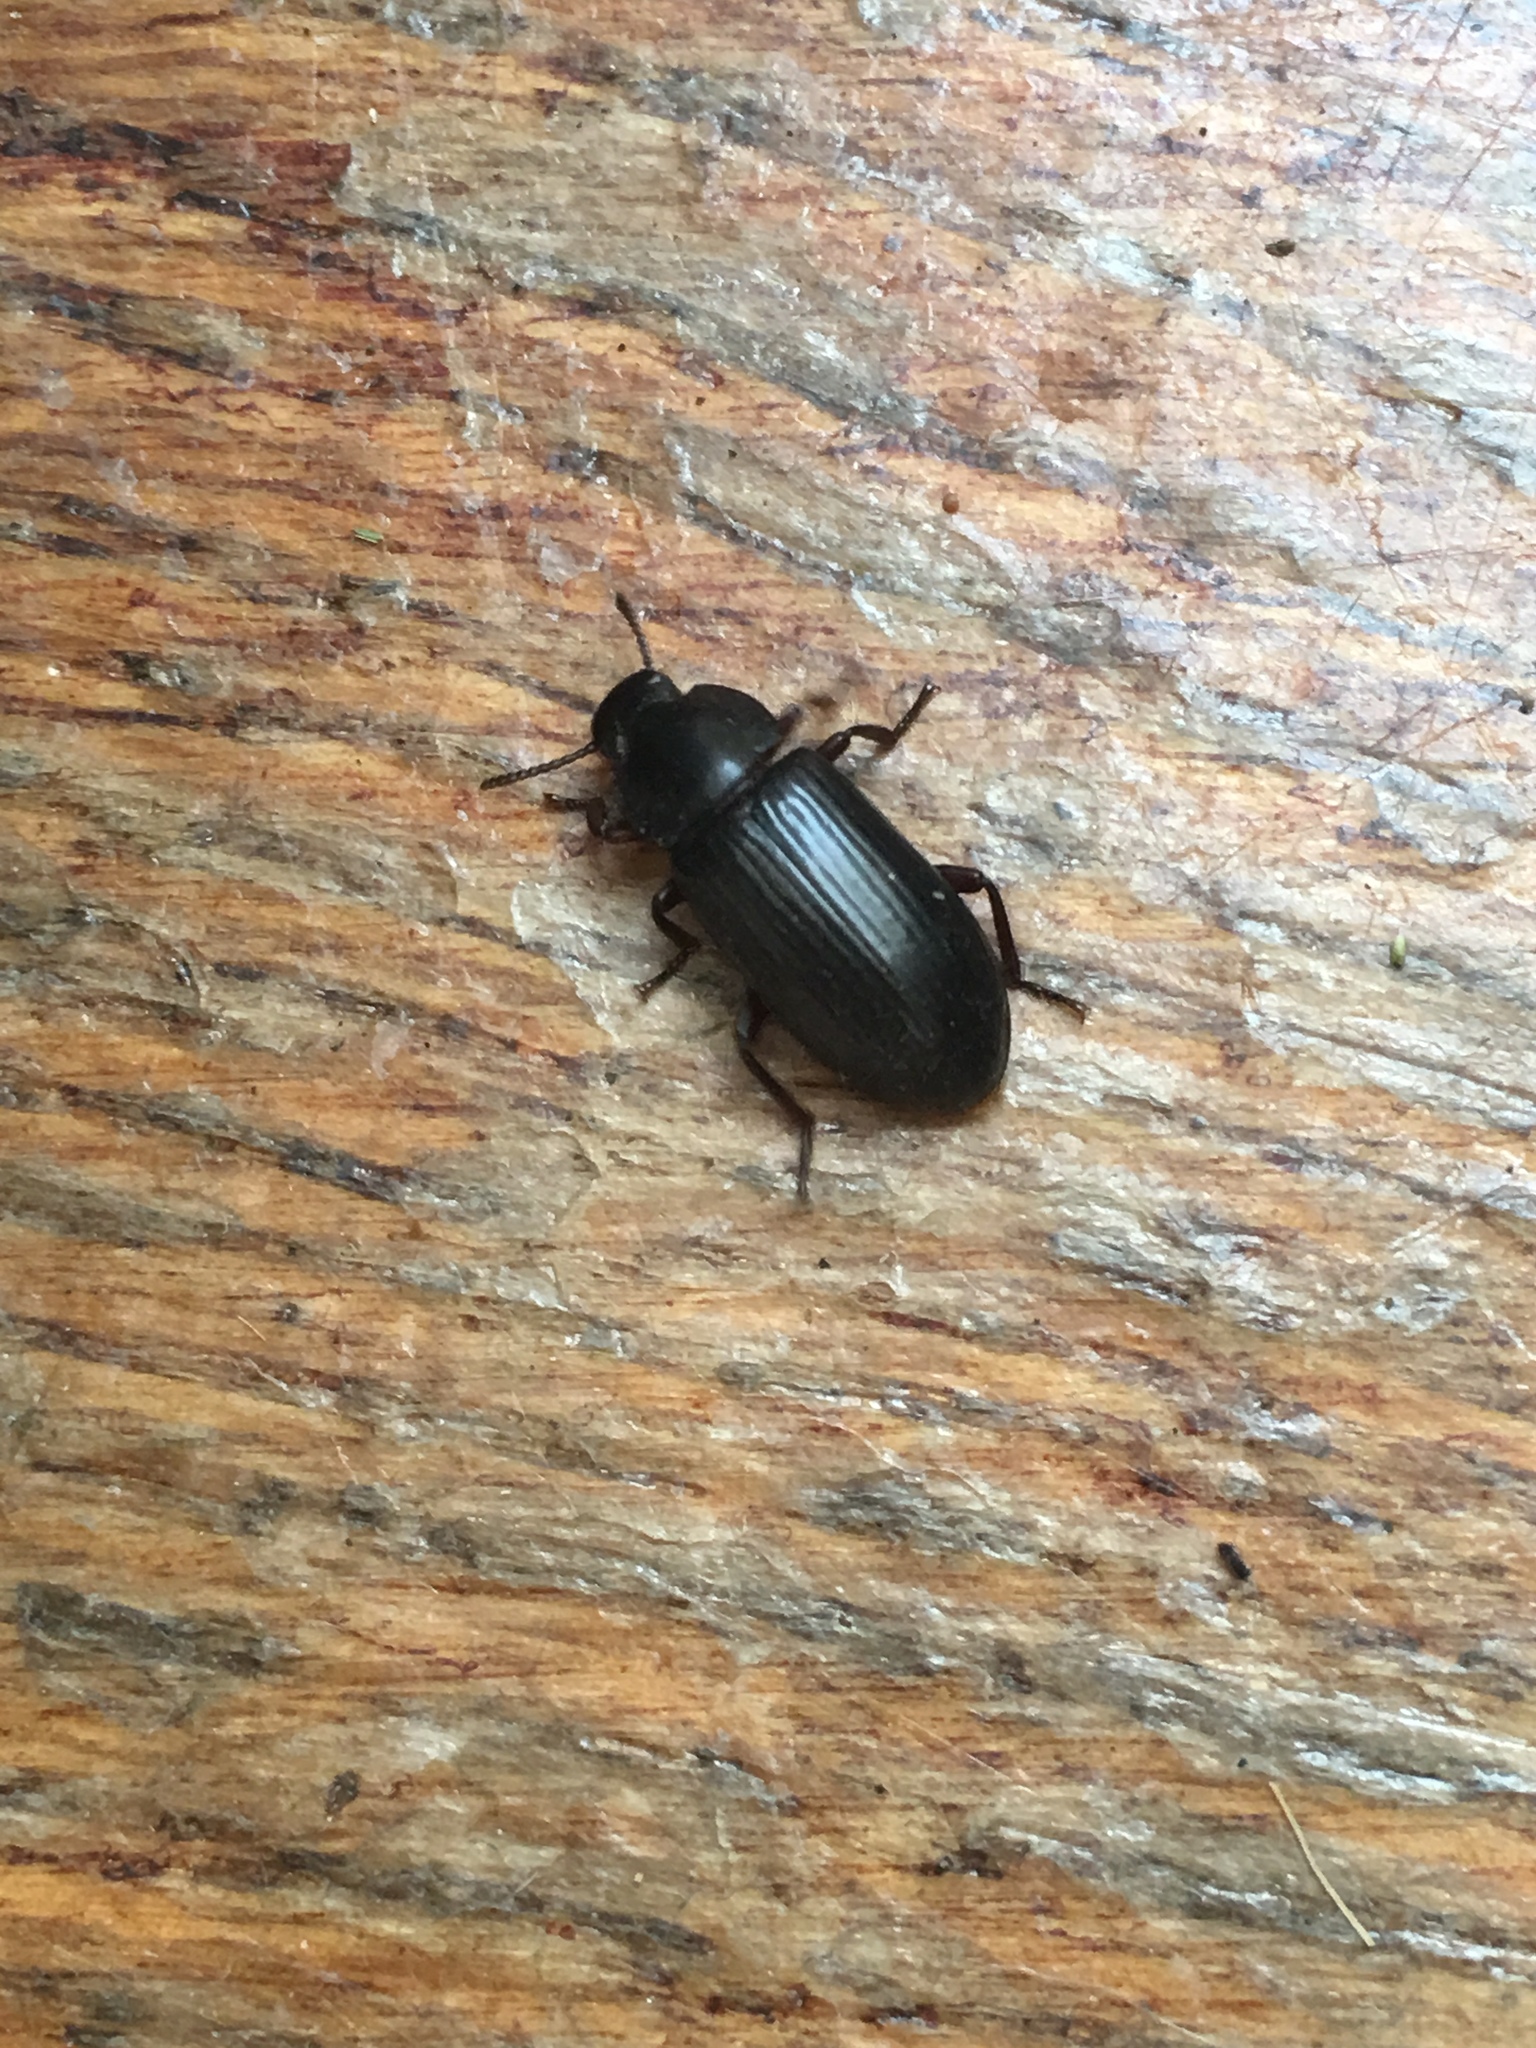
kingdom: Animalia
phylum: Arthropoda
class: Insecta
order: Coleoptera
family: Tenebrionidae
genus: Neatus
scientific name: Neatus tenebrioides
